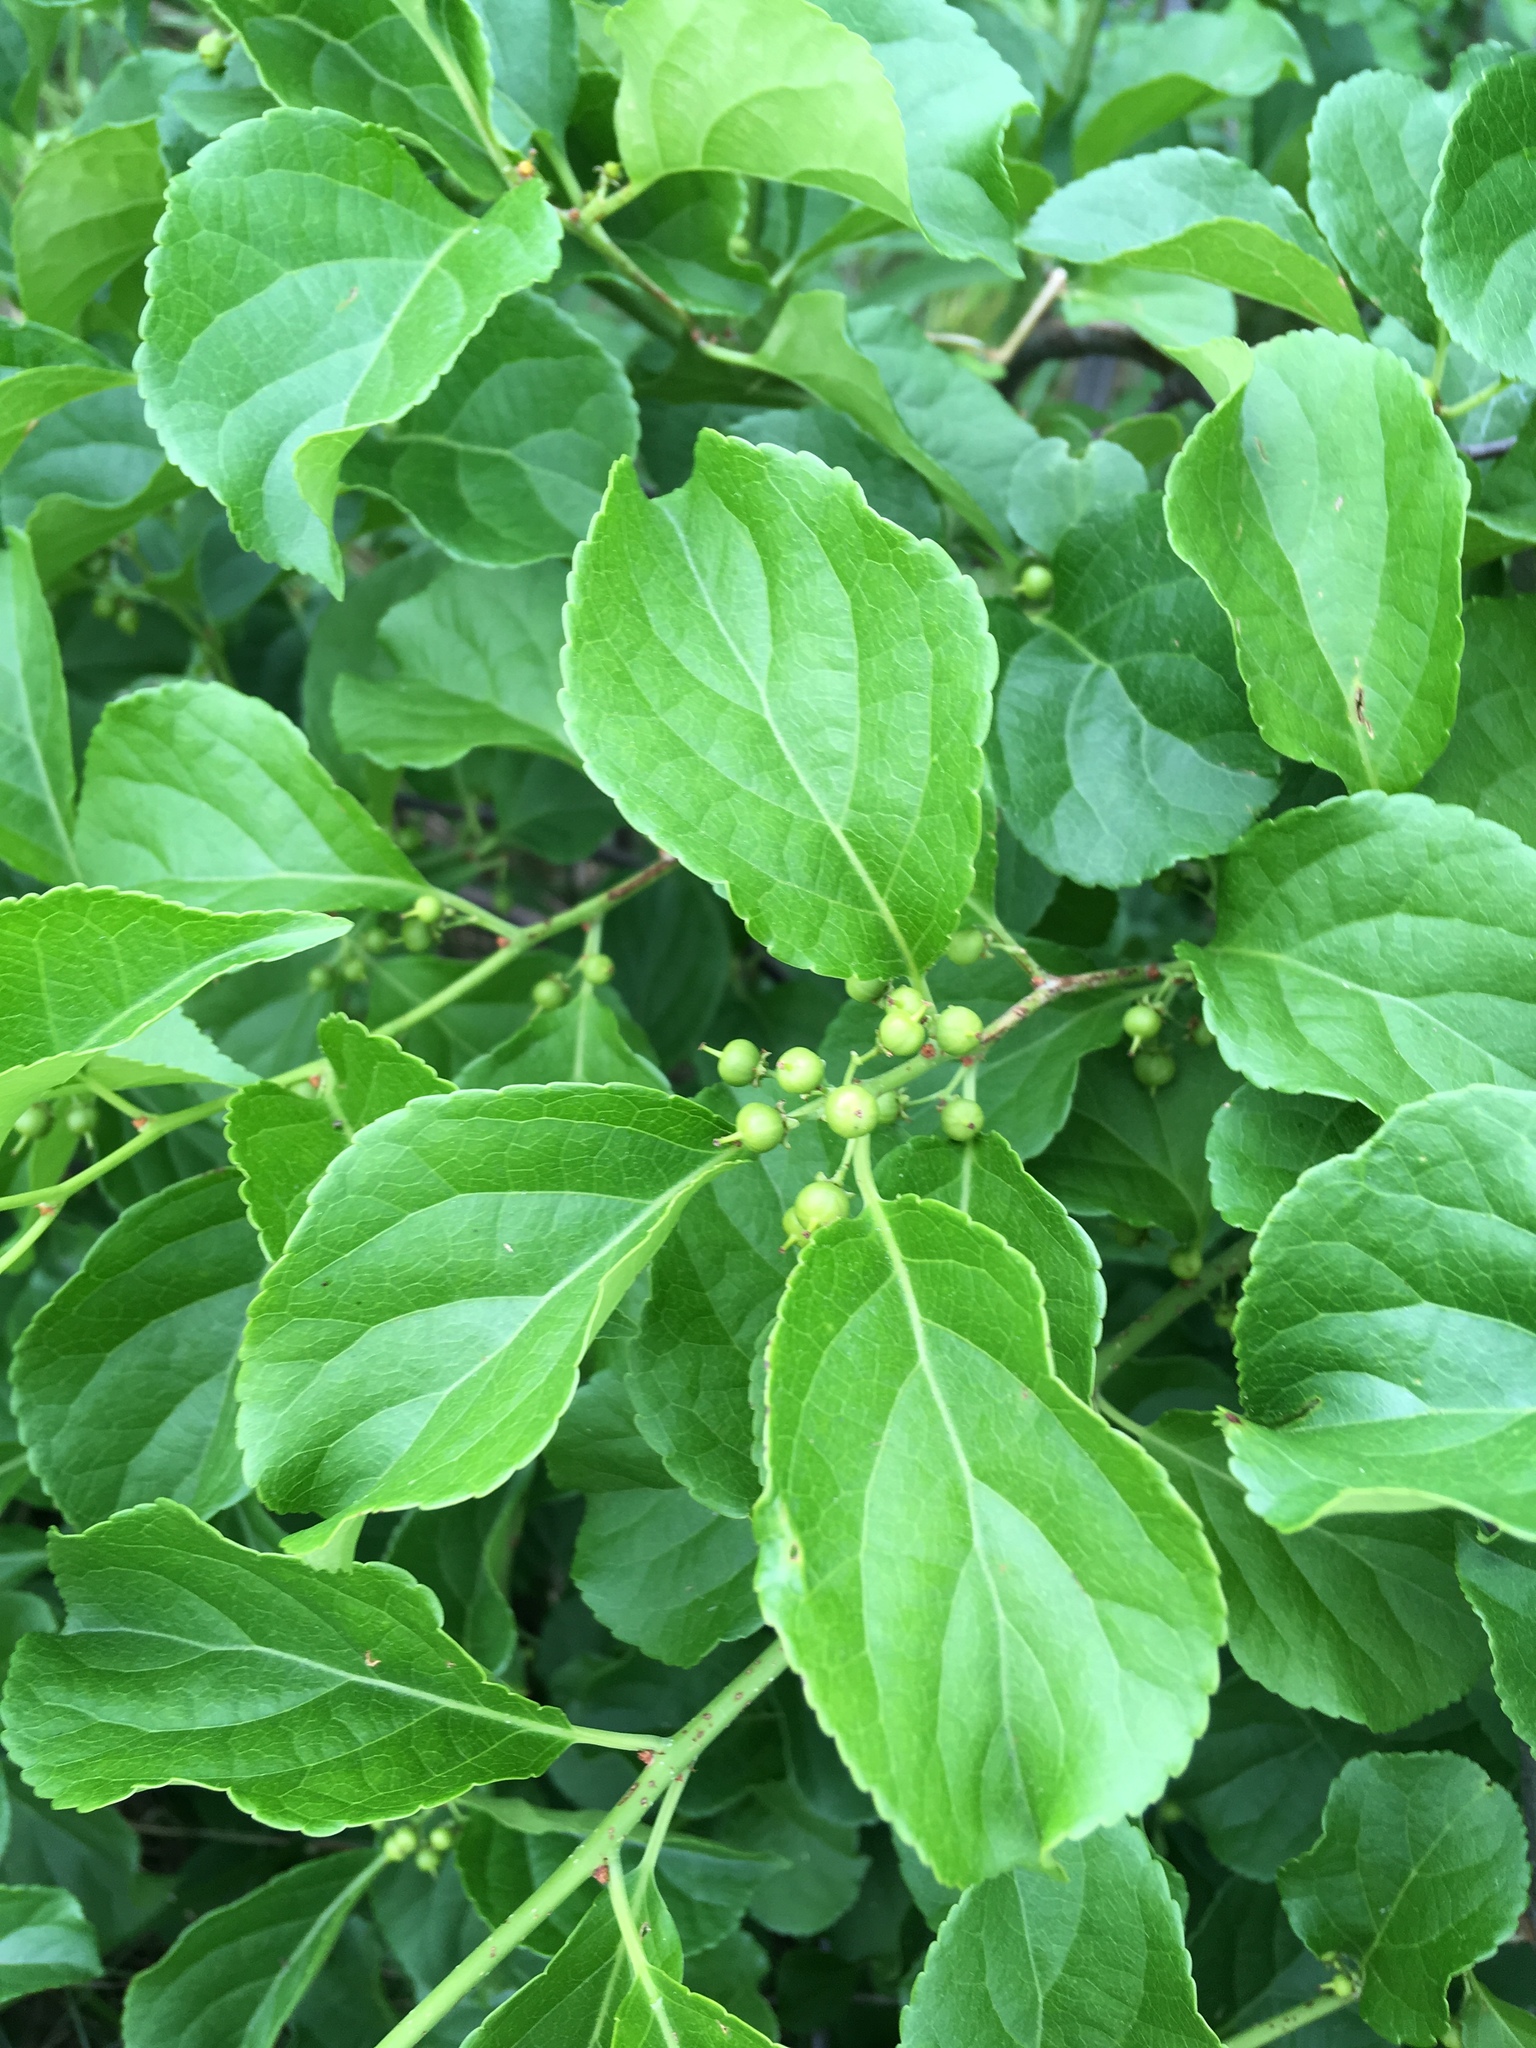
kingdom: Plantae
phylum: Tracheophyta
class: Magnoliopsida
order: Celastrales
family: Celastraceae
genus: Celastrus
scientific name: Celastrus orbiculatus
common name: Oriental bittersweet
